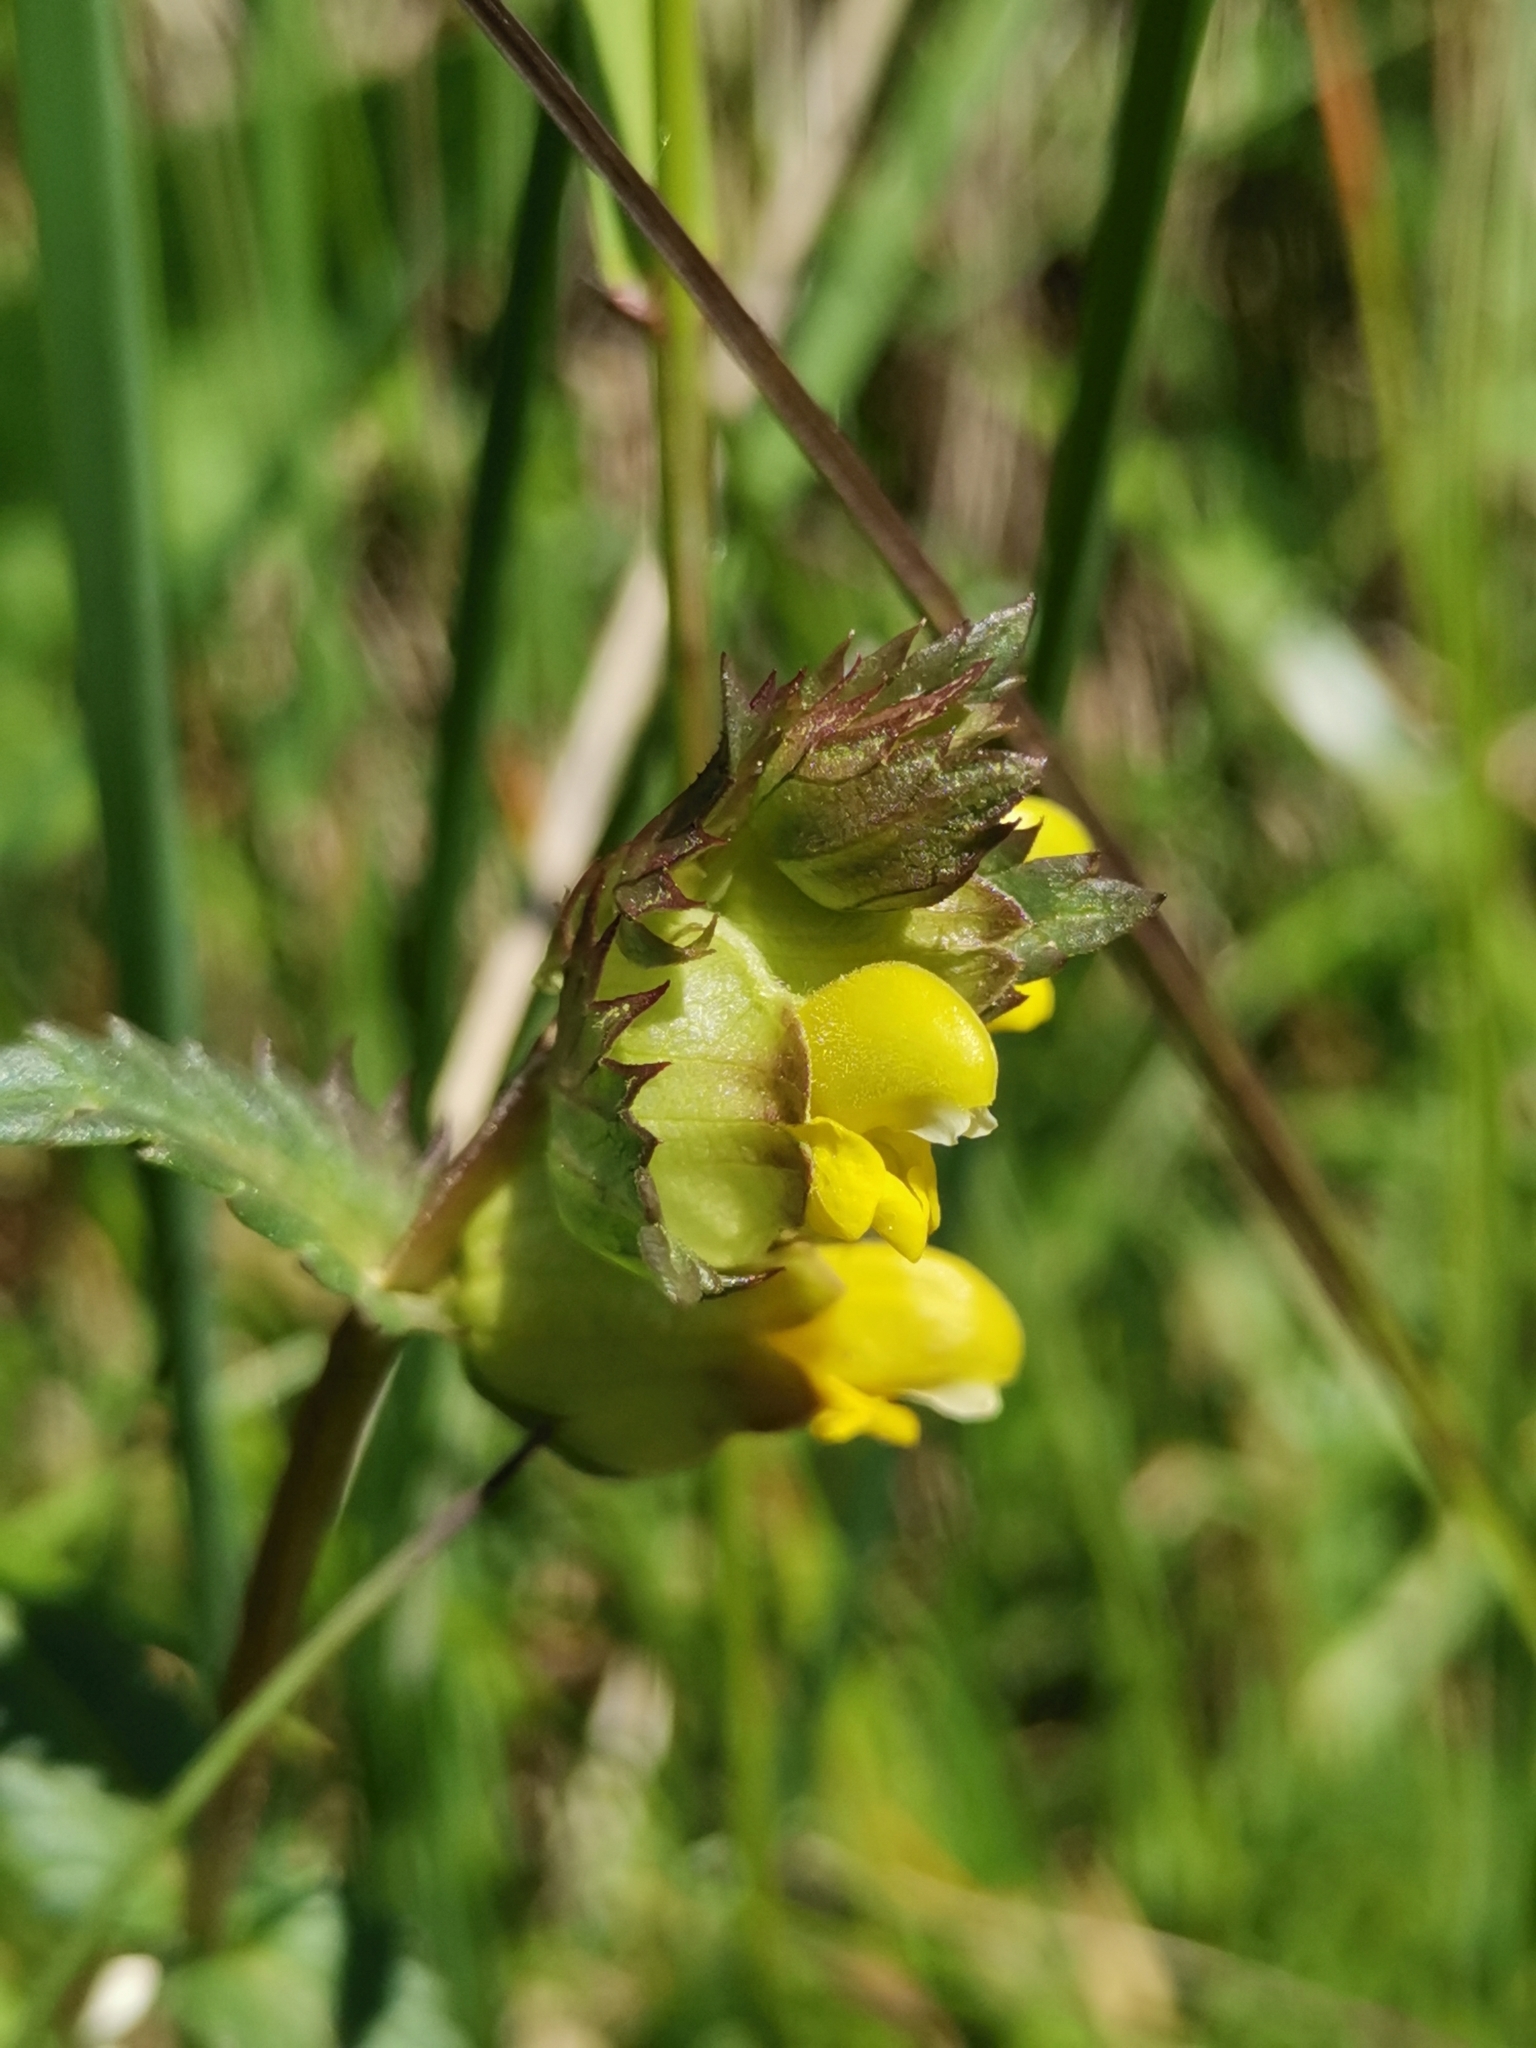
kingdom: Plantae
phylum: Tracheophyta
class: Magnoliopsida
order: Lamiales
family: Orobanchaceae
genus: Rhinanthus
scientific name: Rhinanthus minor
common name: Yellow-rattle
